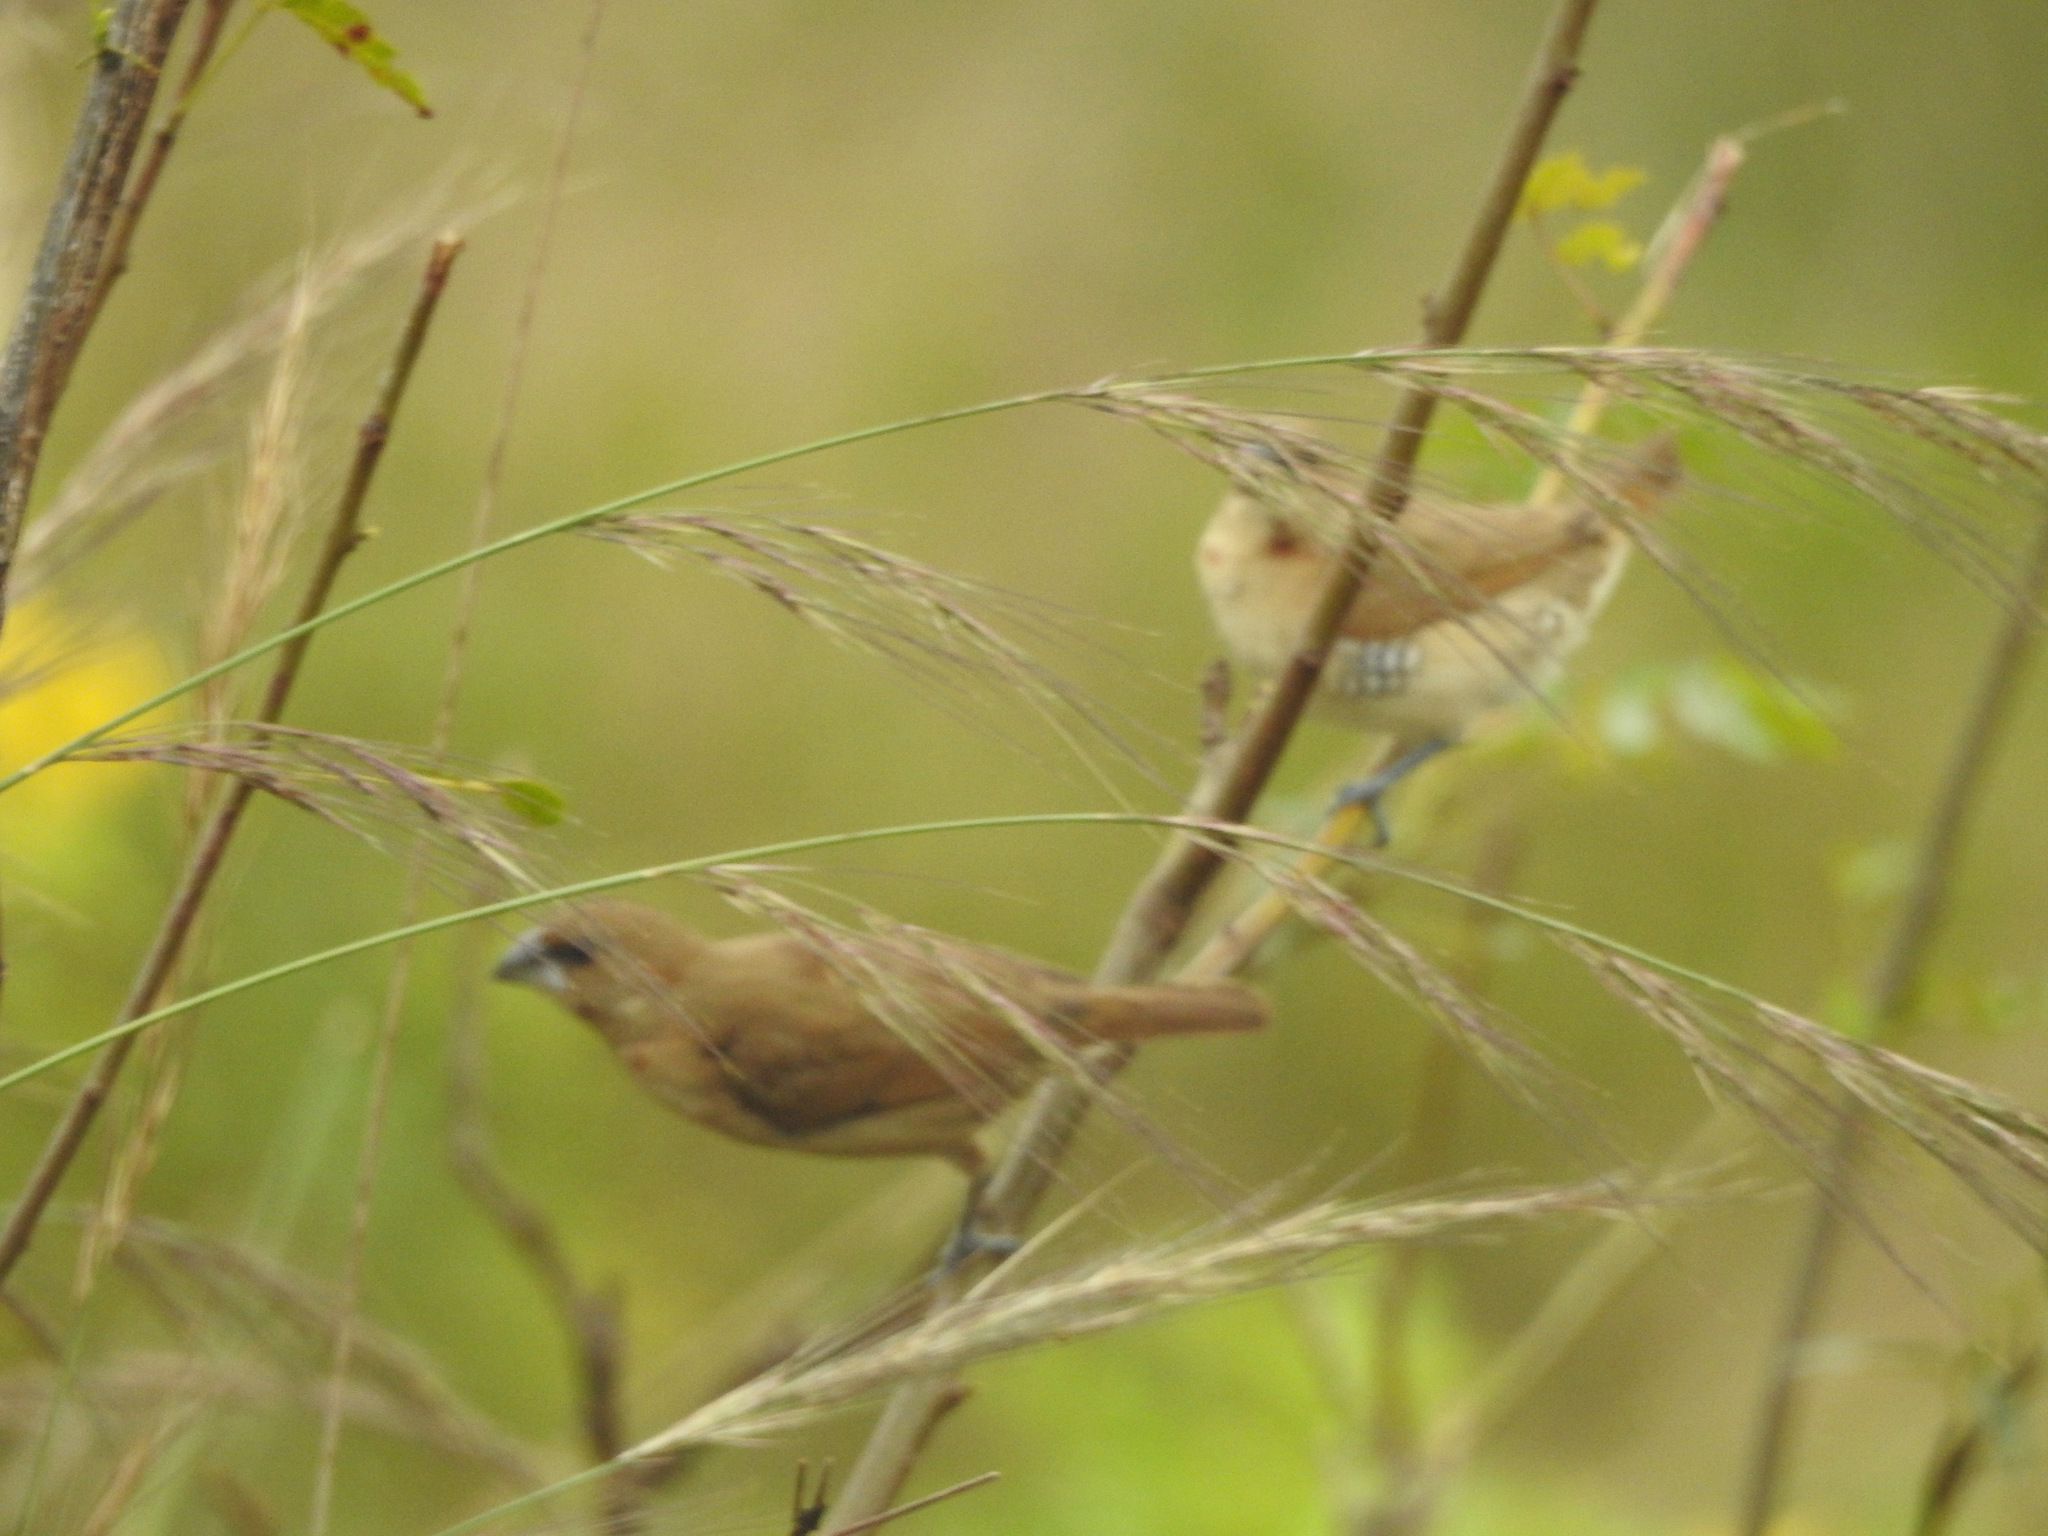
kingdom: Animalia
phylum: Chordata
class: Aves
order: Passeriformes
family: Estrildidae
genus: Lonchura
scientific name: Lonchura punctulata
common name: Scaly-breasted munia
